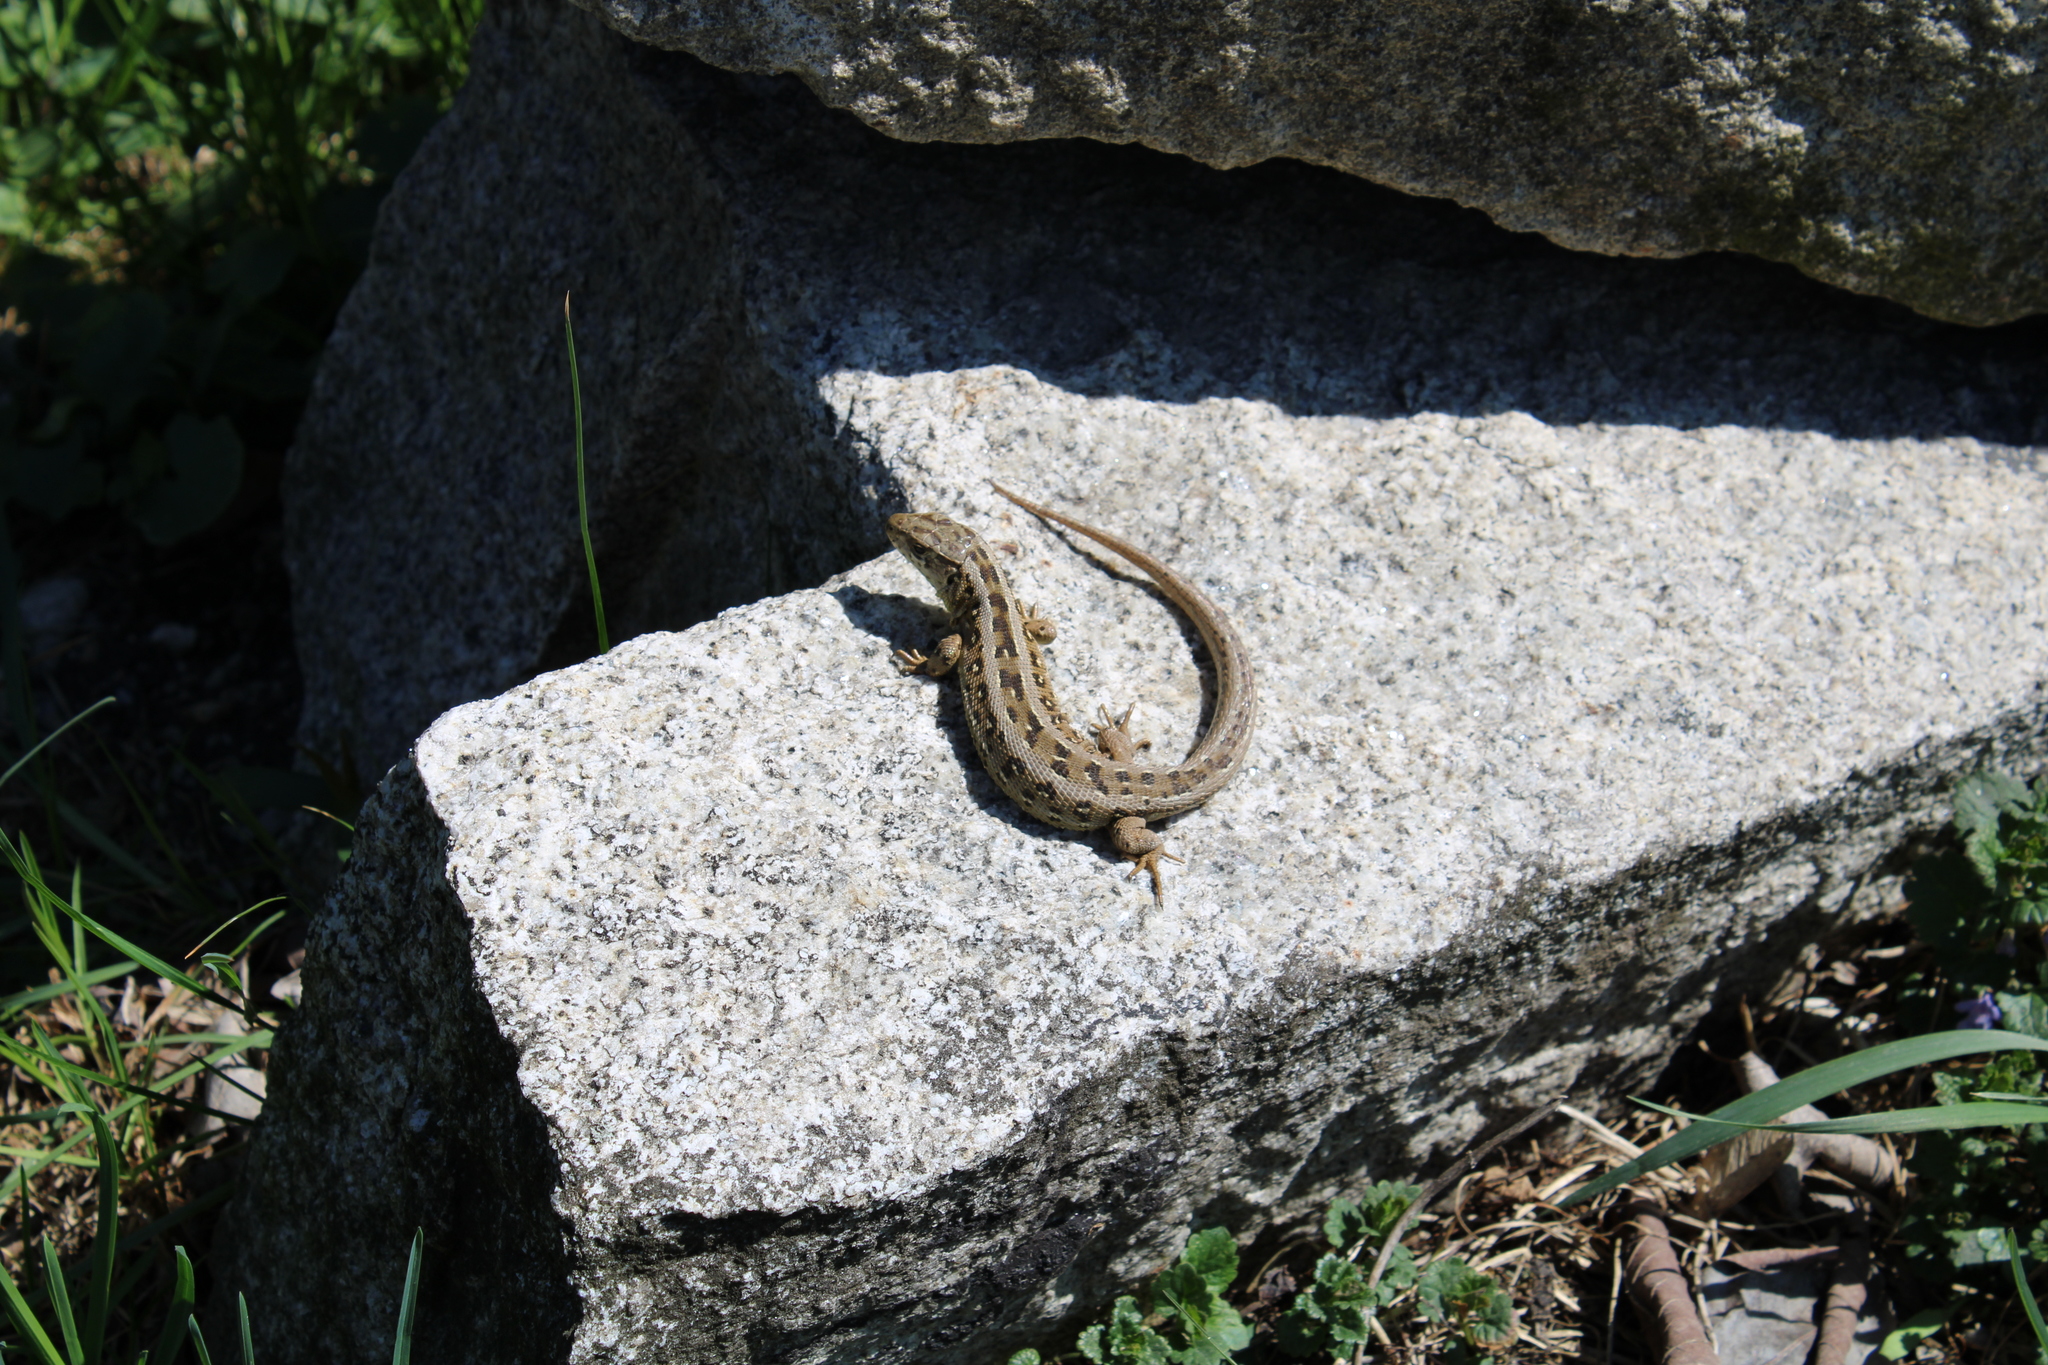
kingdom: Animalia
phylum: Chordata
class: Squamata
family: Lacertidae
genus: Lacerta
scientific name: Lacerta agilis
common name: Sand lizard
